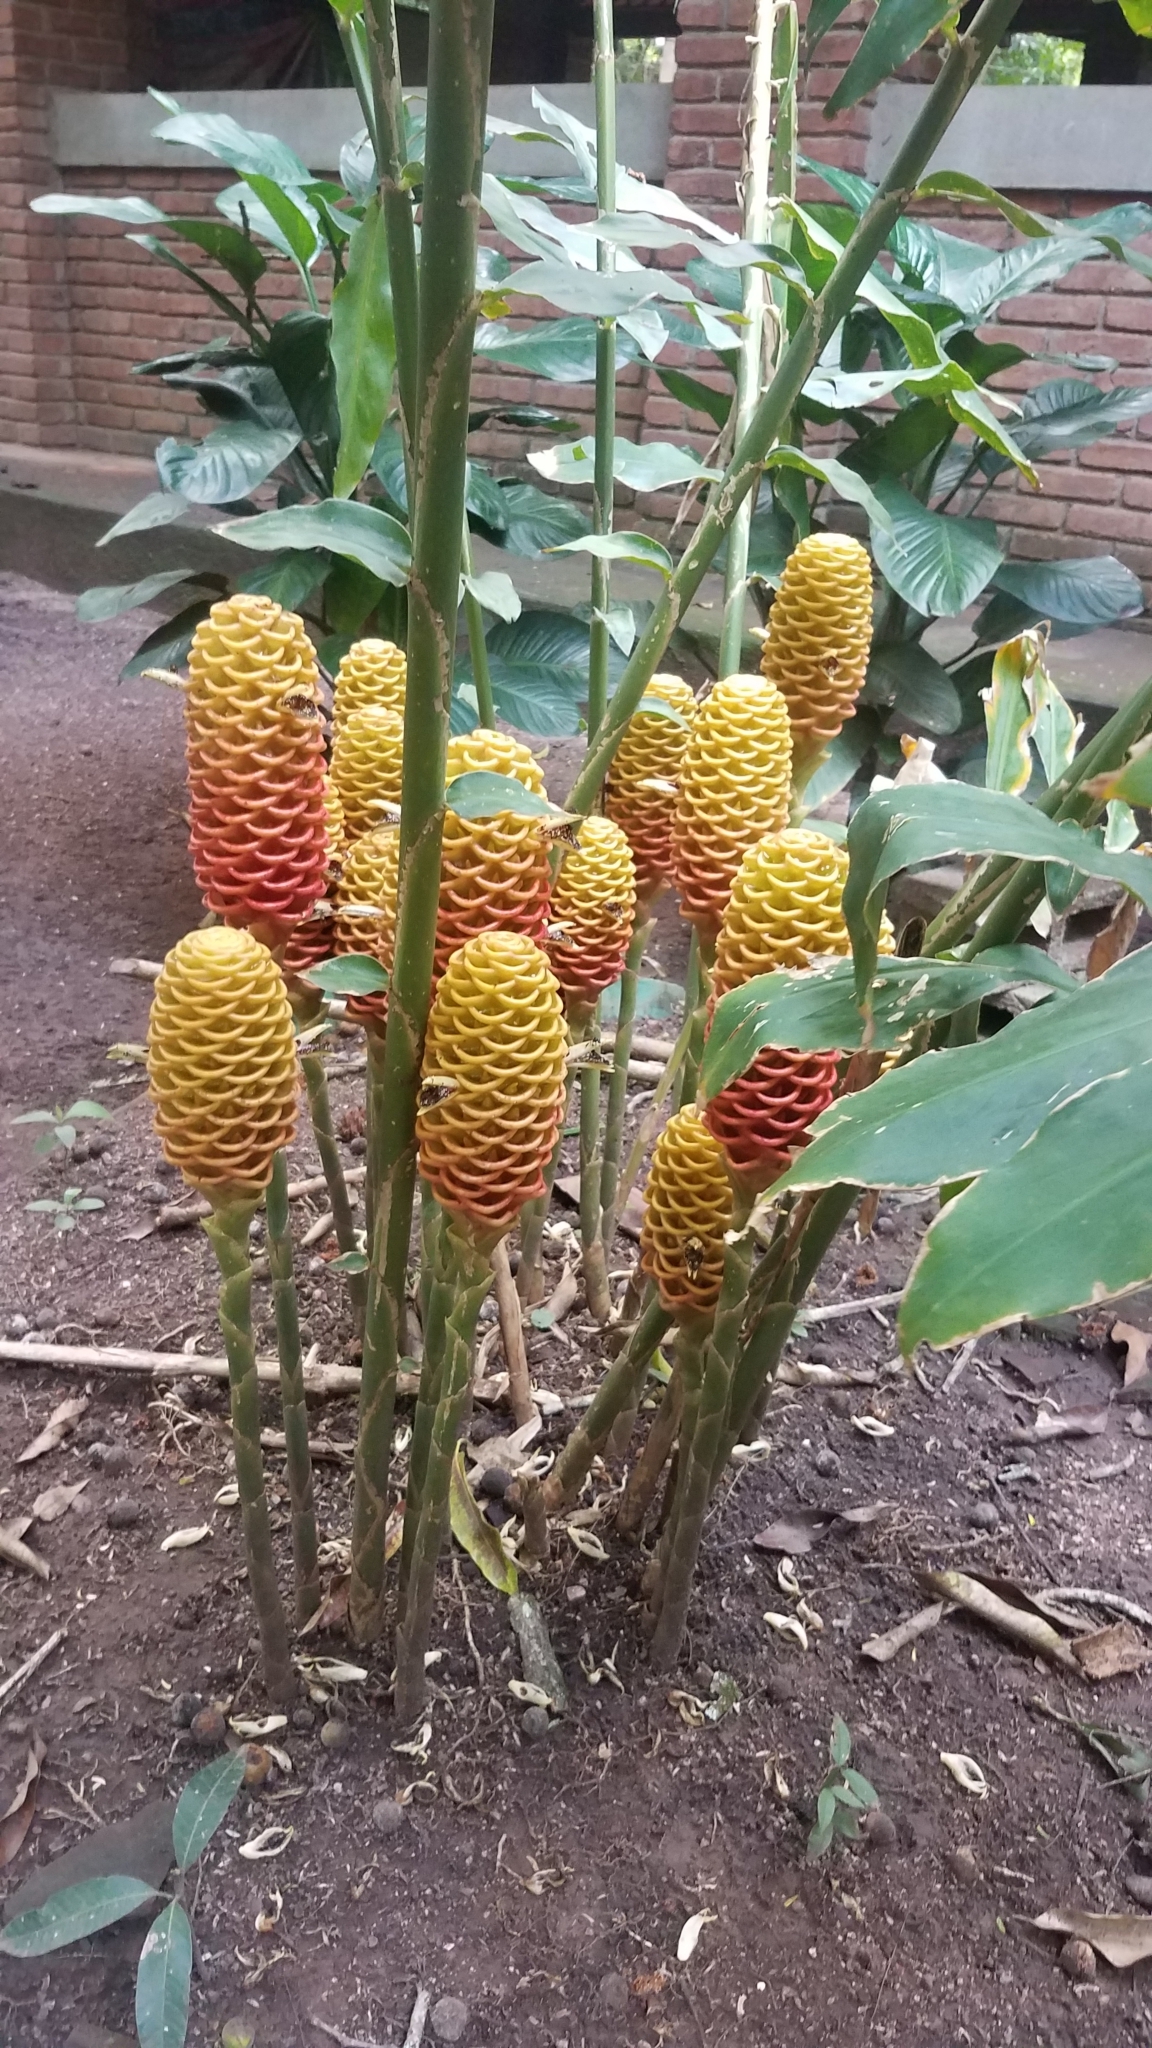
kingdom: Plantae
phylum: Tracheophyta
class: Liliopsida
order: Zingiberales
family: Zingiberaceae
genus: Zingiber
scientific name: Zingiber spectabile
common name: Beehive ginger
